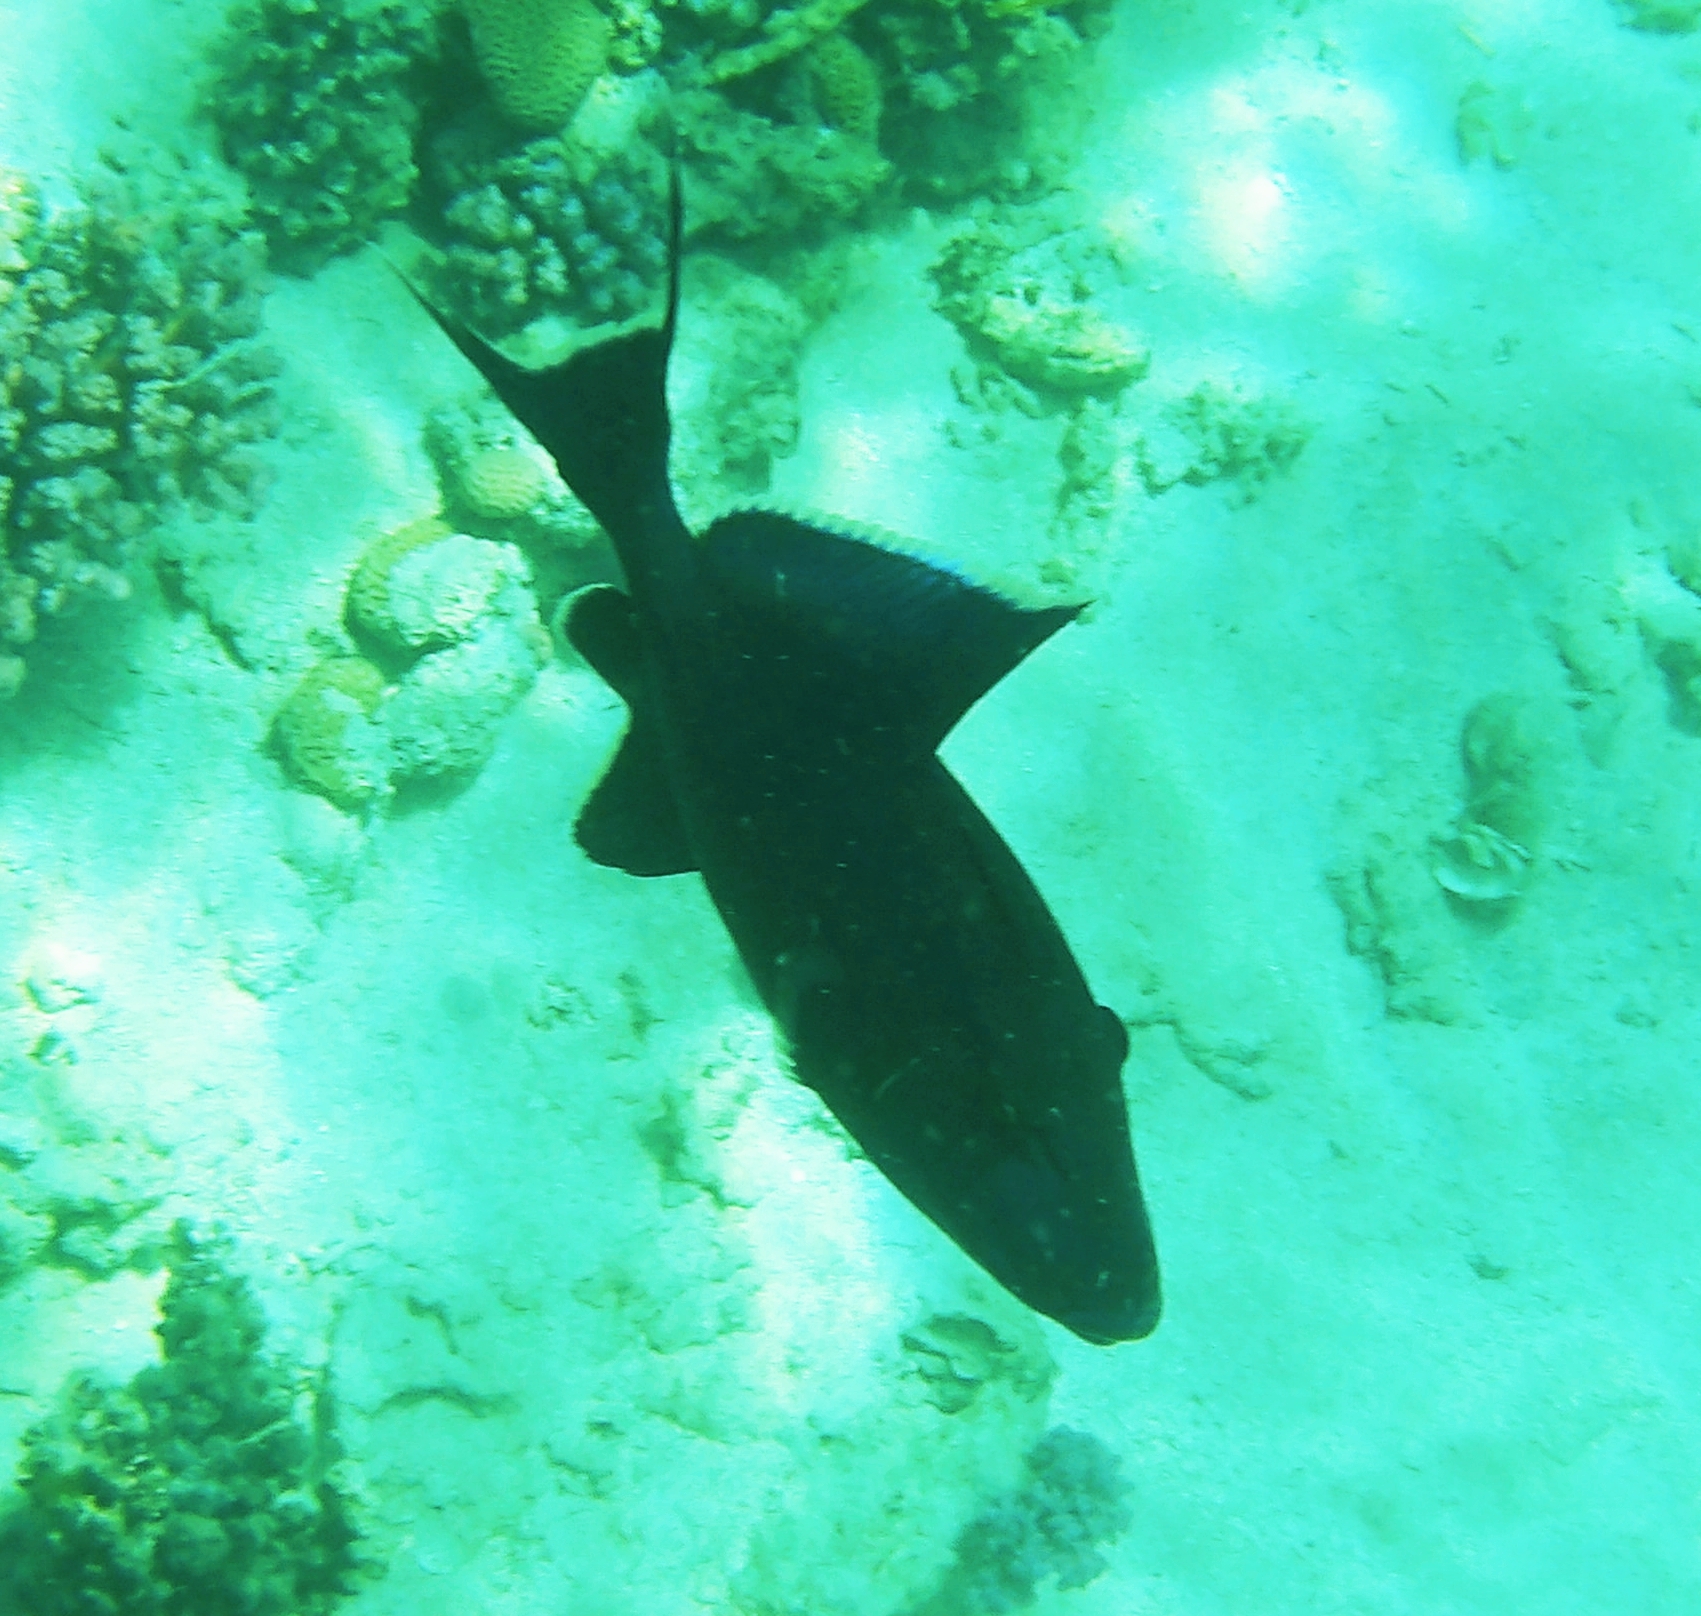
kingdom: Animalia
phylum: Chordata
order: Tetraodontiformes
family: Balistidae
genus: Pseudobalistes
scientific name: Pseudobalistes fuscus
